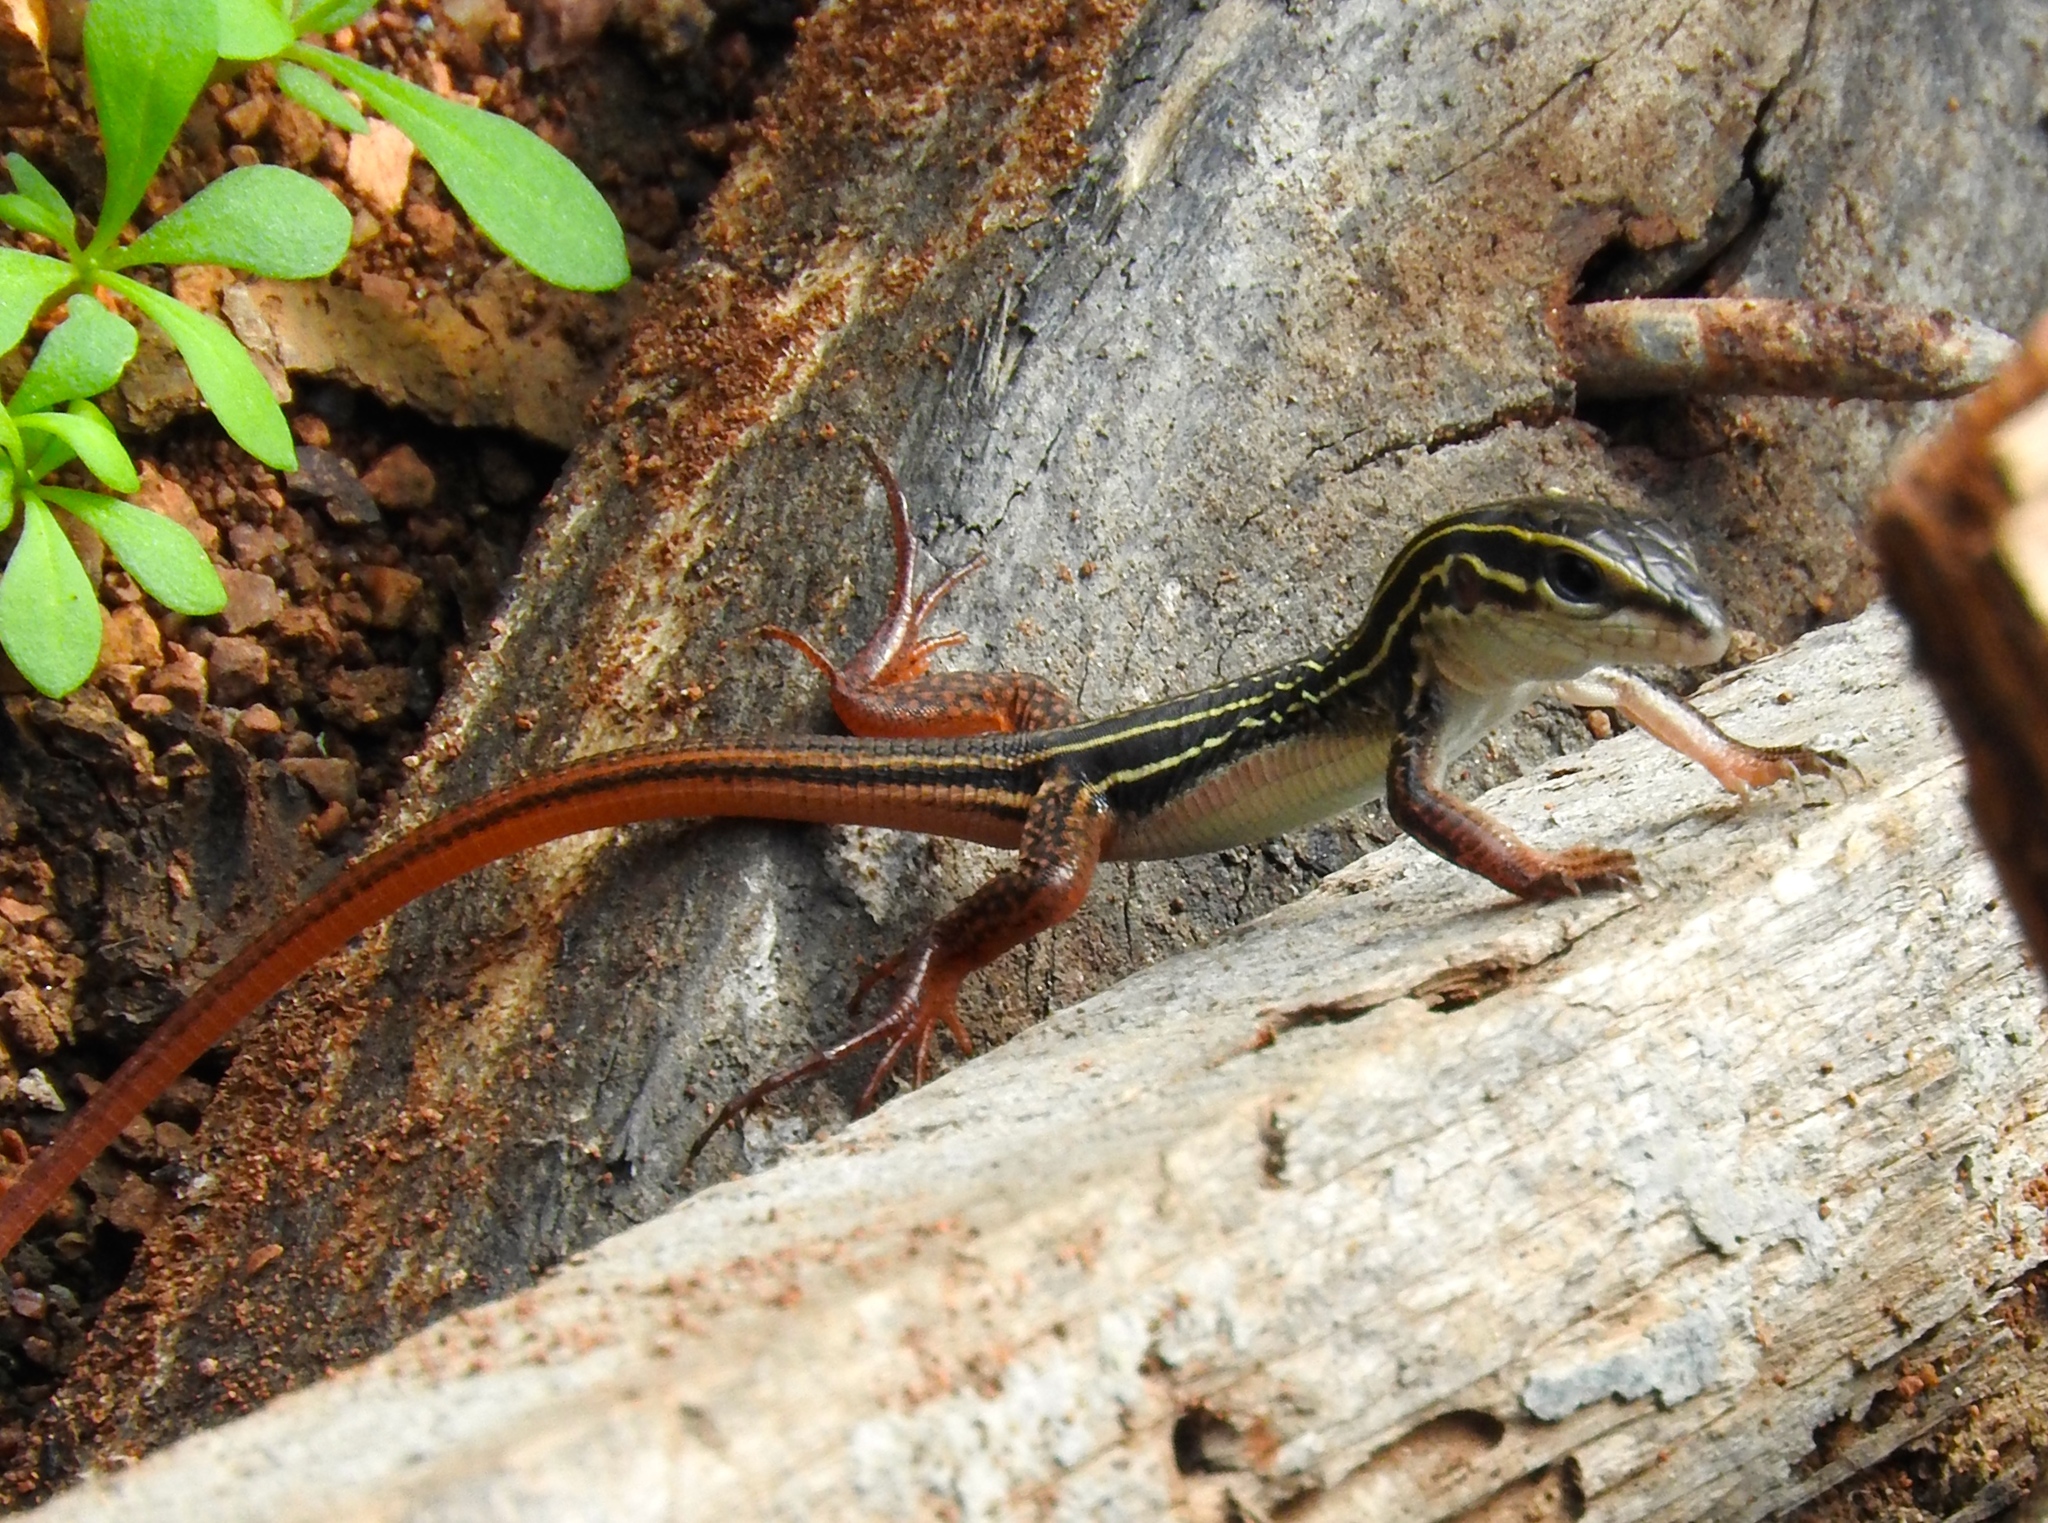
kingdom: Animalia
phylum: Chordata
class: Squamata
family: Teiidae
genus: Aspidoscelis
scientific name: Aspidoscelis costatus
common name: Western mexico whiptail
